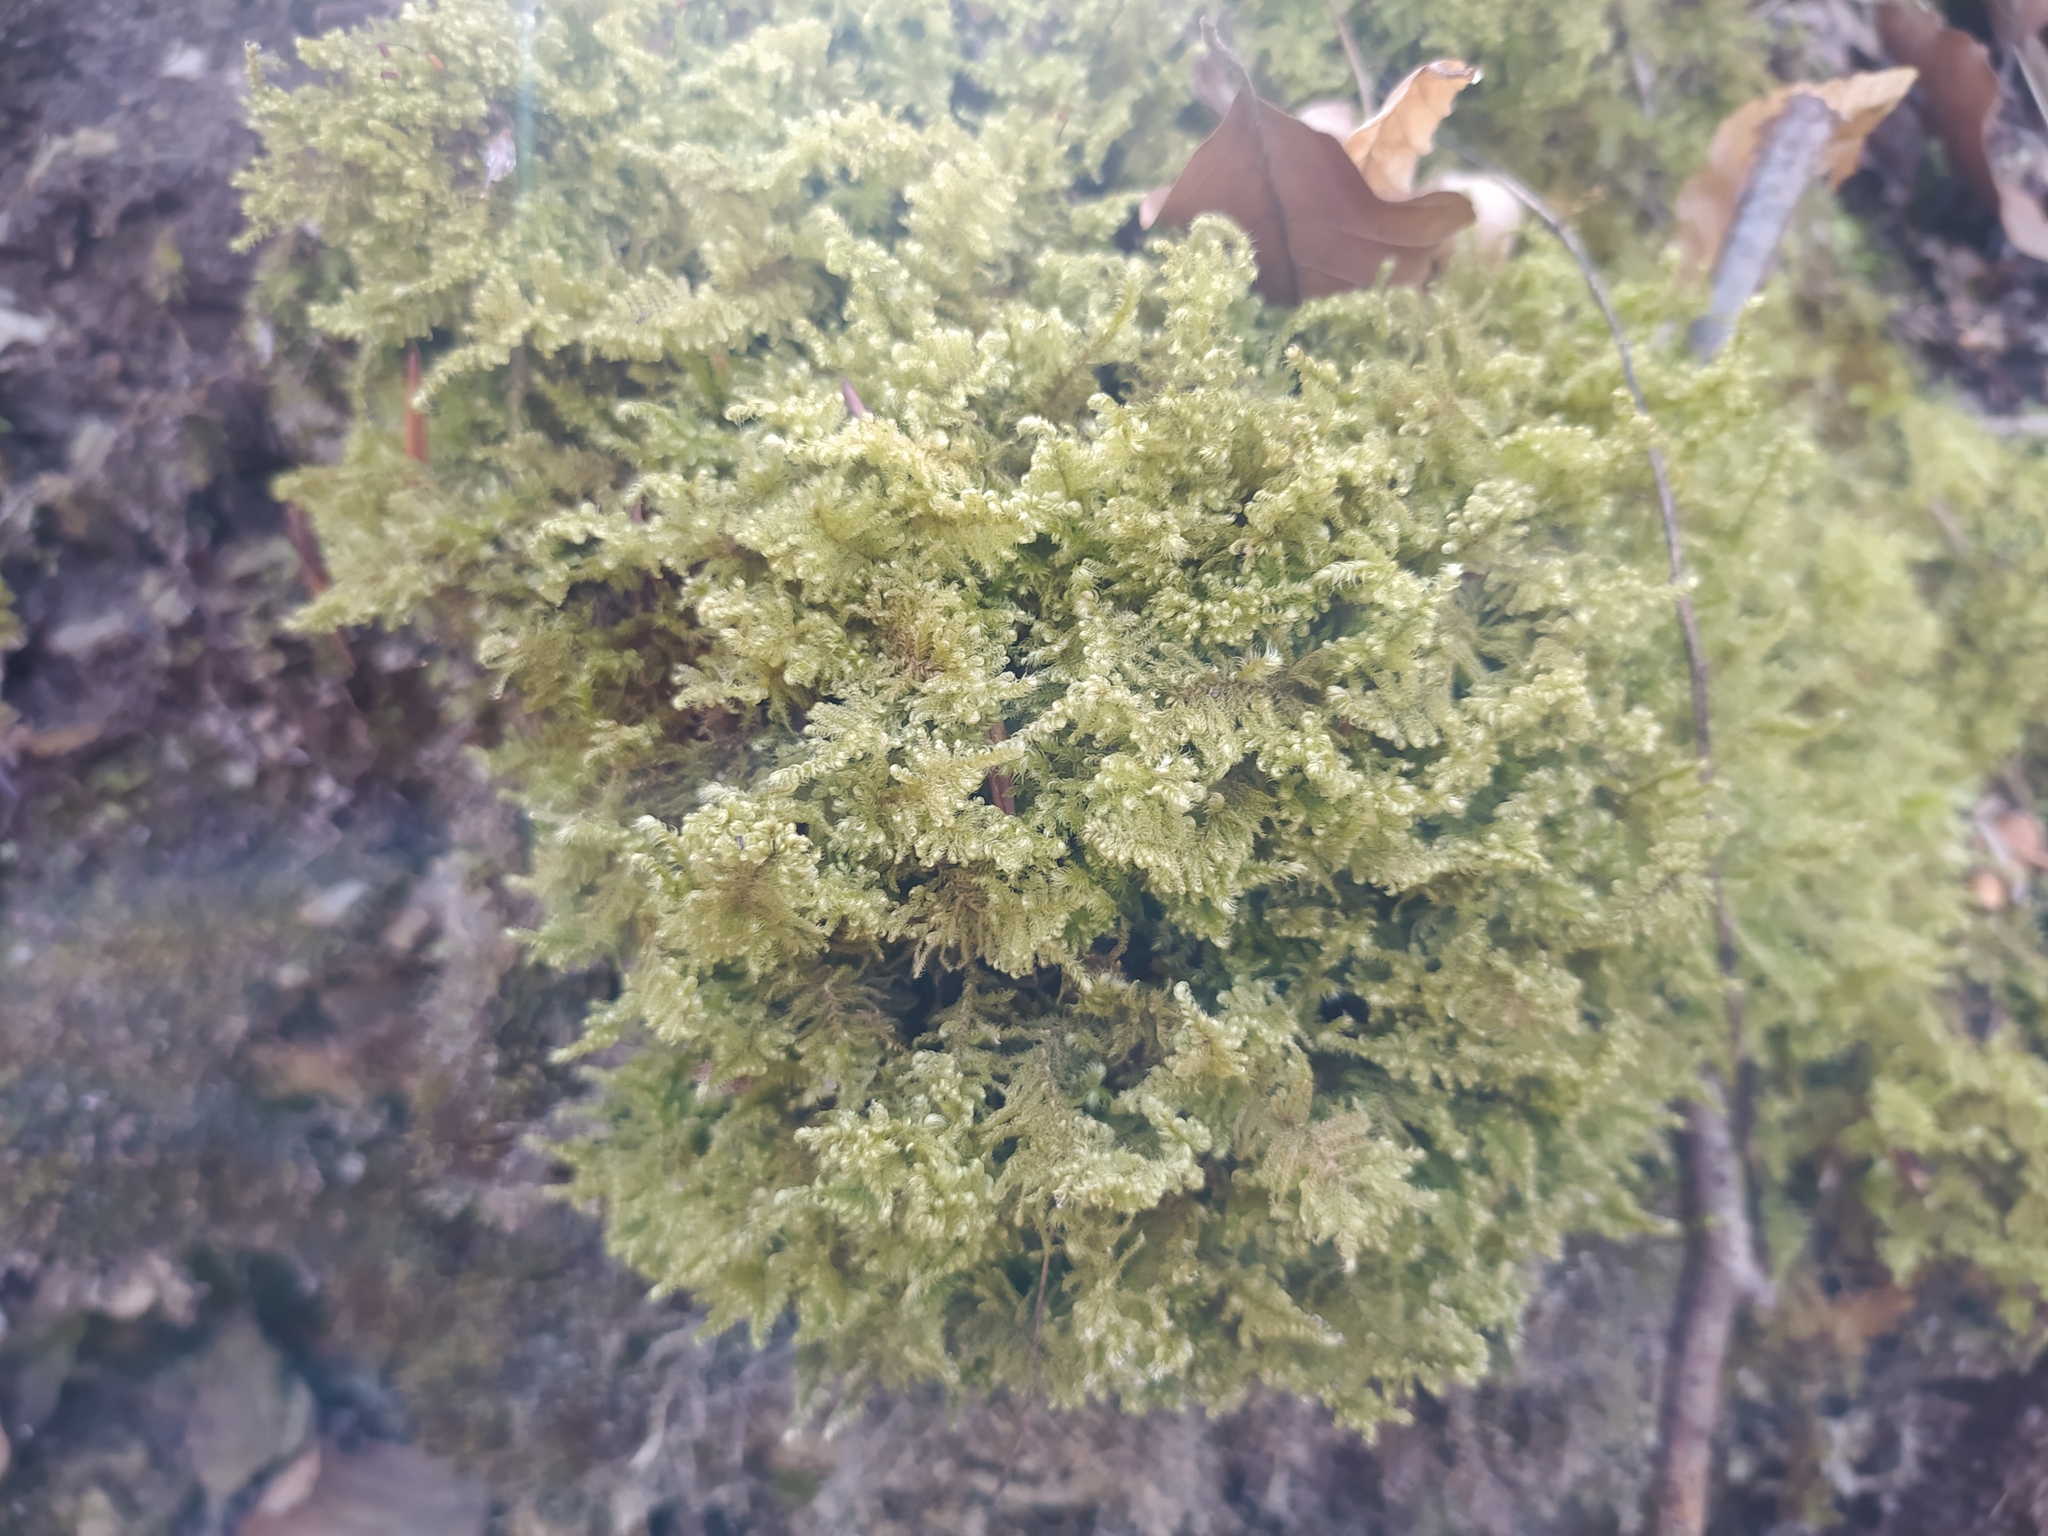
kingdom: Plantae
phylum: Bryophyta
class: Bryopsida
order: Hypnales
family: Myuriaceae
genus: Ctenidium
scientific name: Ctenidium molluscum
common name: Chalk comb-moss
